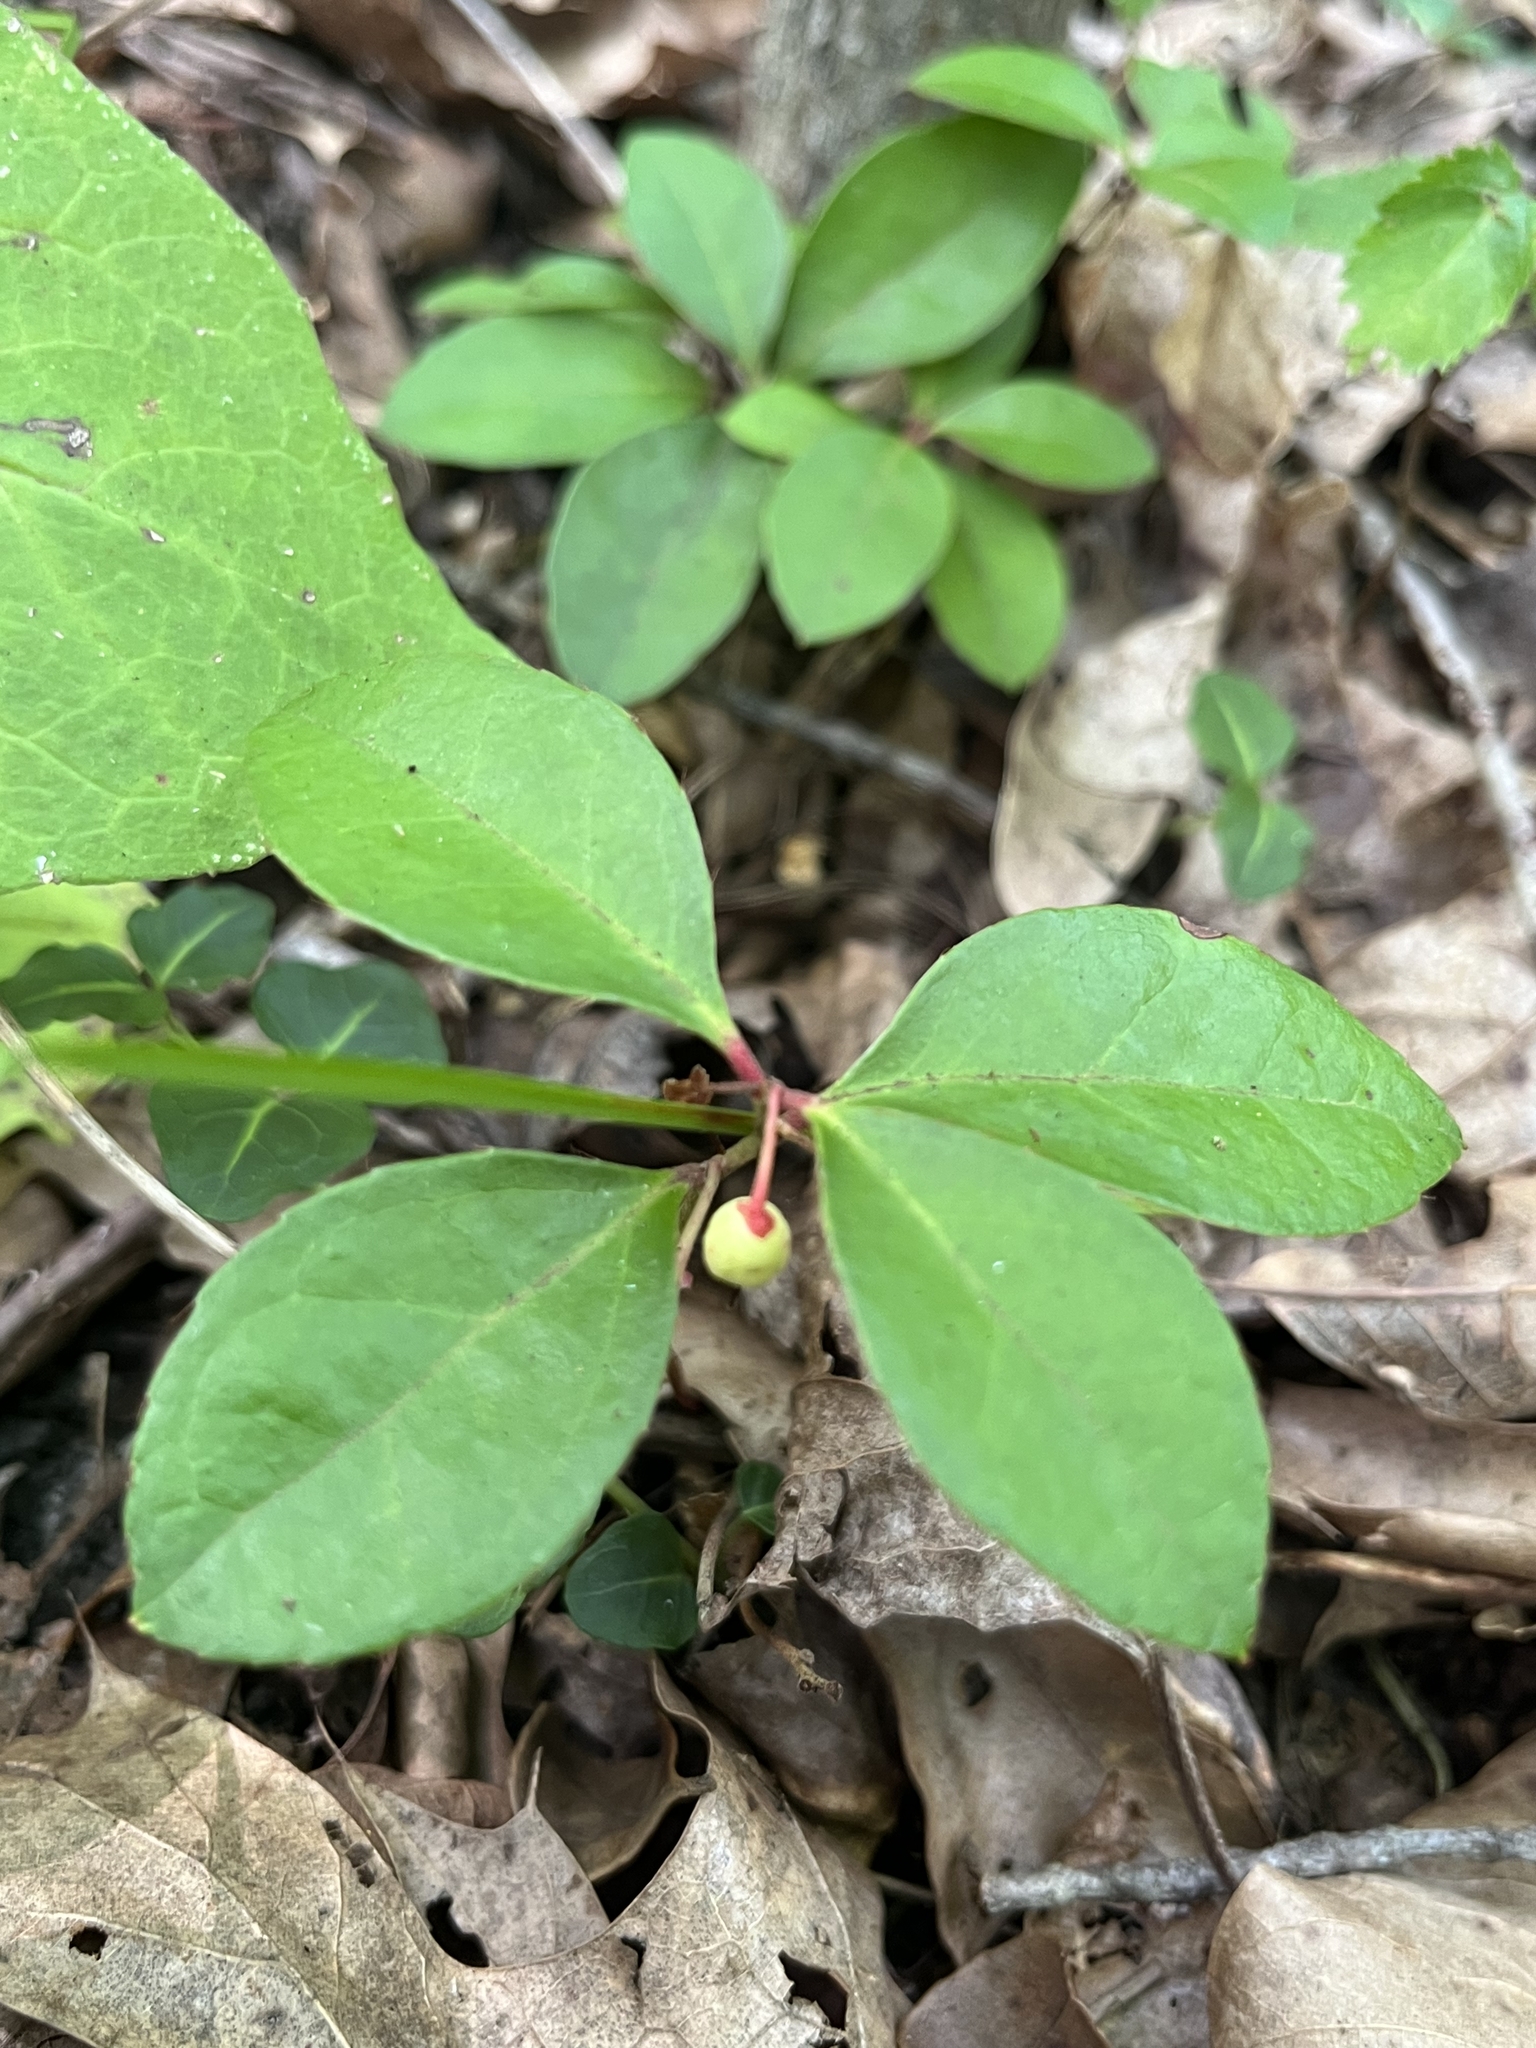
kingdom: Plantae
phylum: Tracheophyta
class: Magnoliopsida
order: Ericales
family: Ericaceae
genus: Gaultheria
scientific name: Gaultheria procumbens
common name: Checkerberry
